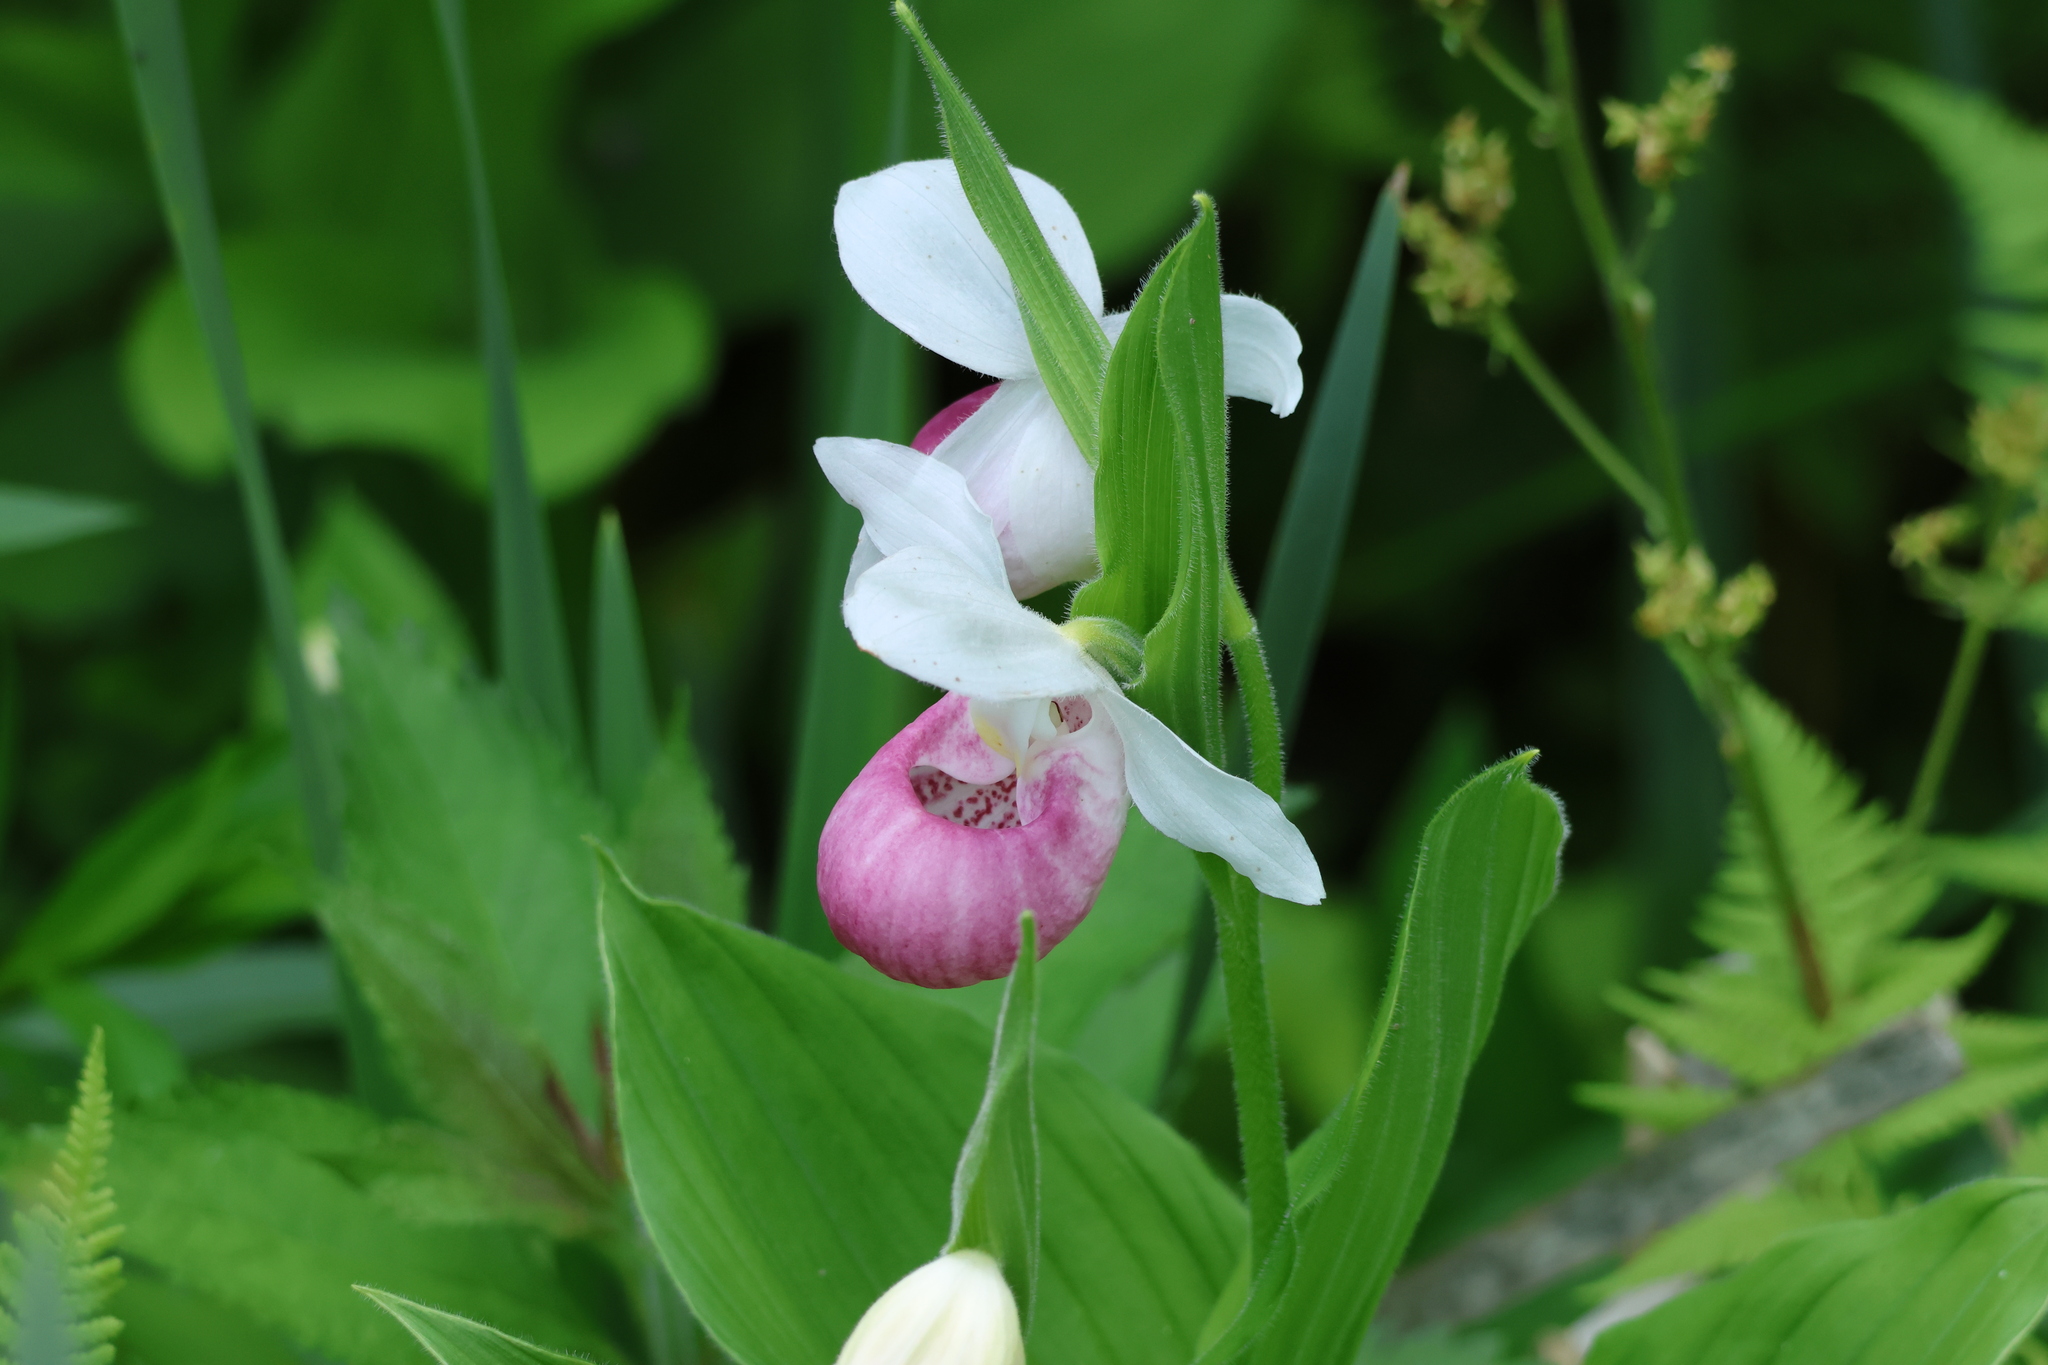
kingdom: Plantae
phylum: Tracheophyta
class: Liliopsida
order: Asparagales
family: Orchidaceae
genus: Cypripedium
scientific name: Cypripedium reginae
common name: Queen lady's-slipper
